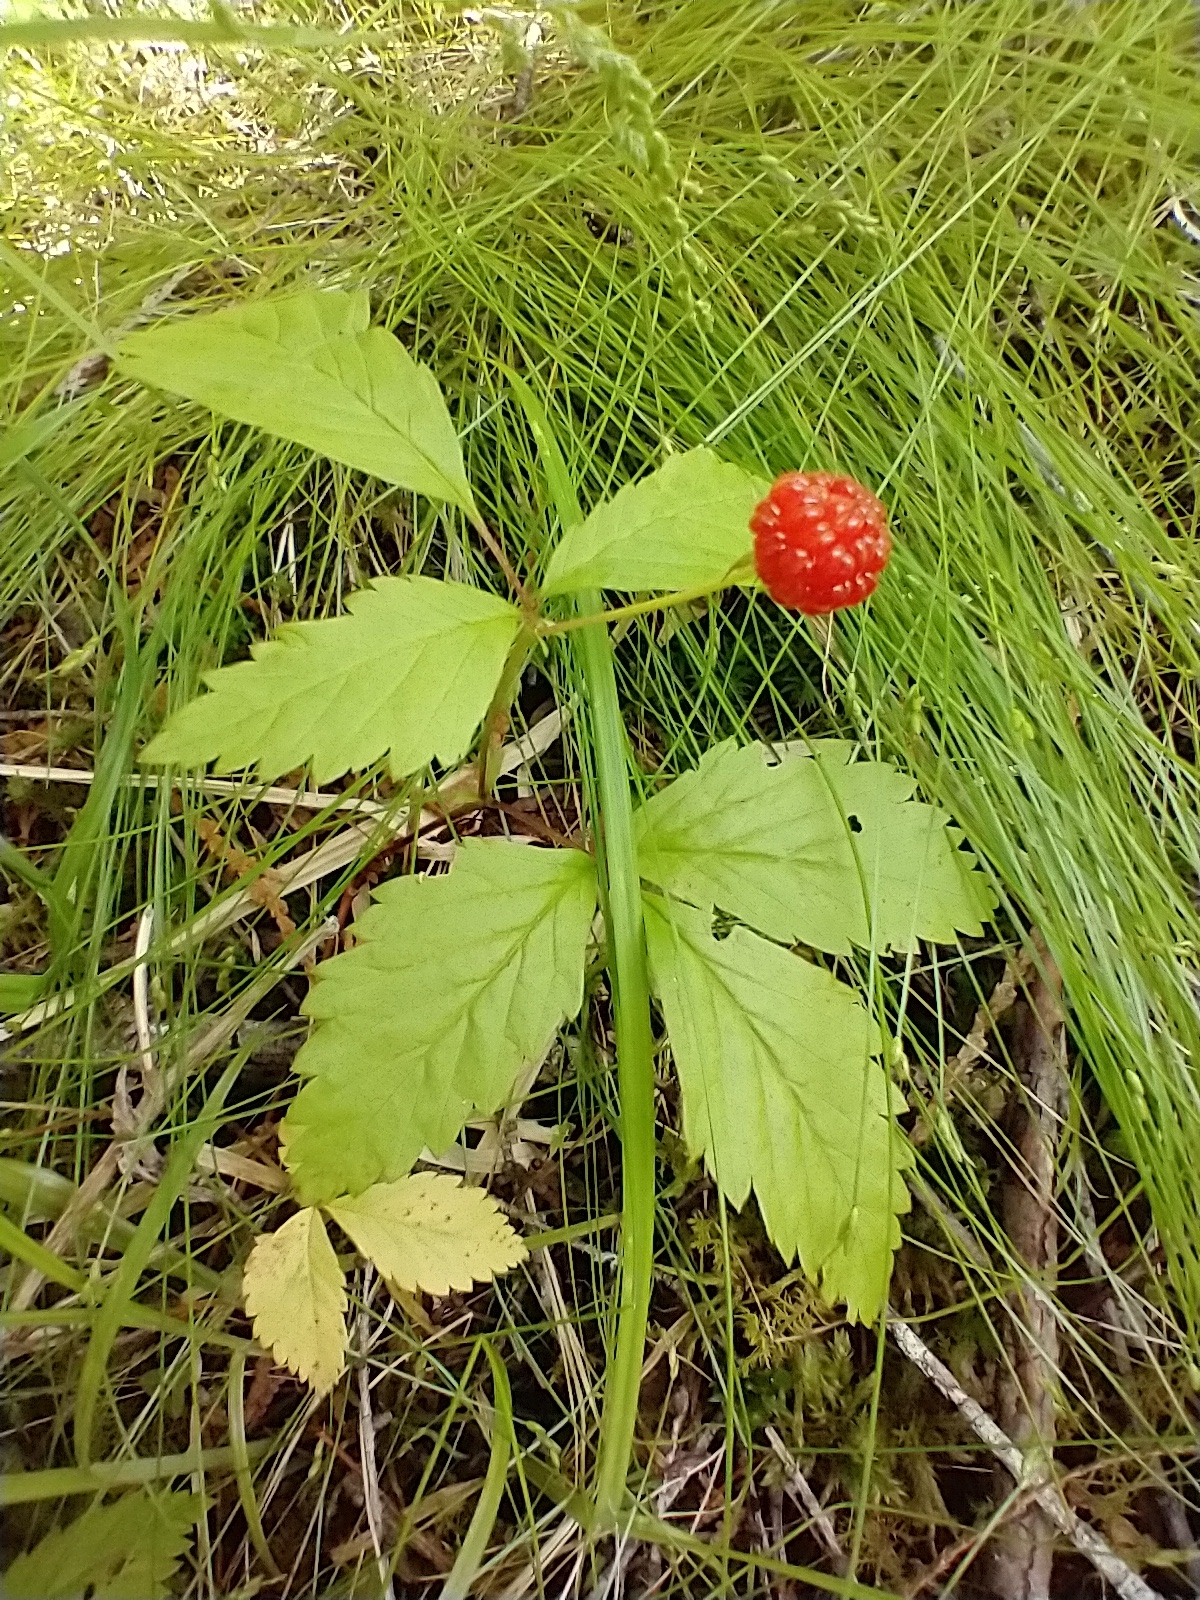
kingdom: Plantae
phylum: Tracheophyta
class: Magnoliopsida
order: Rosales
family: Rosaceae
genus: Rubus
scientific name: Rubus pubescens
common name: Dwarf raspberry
